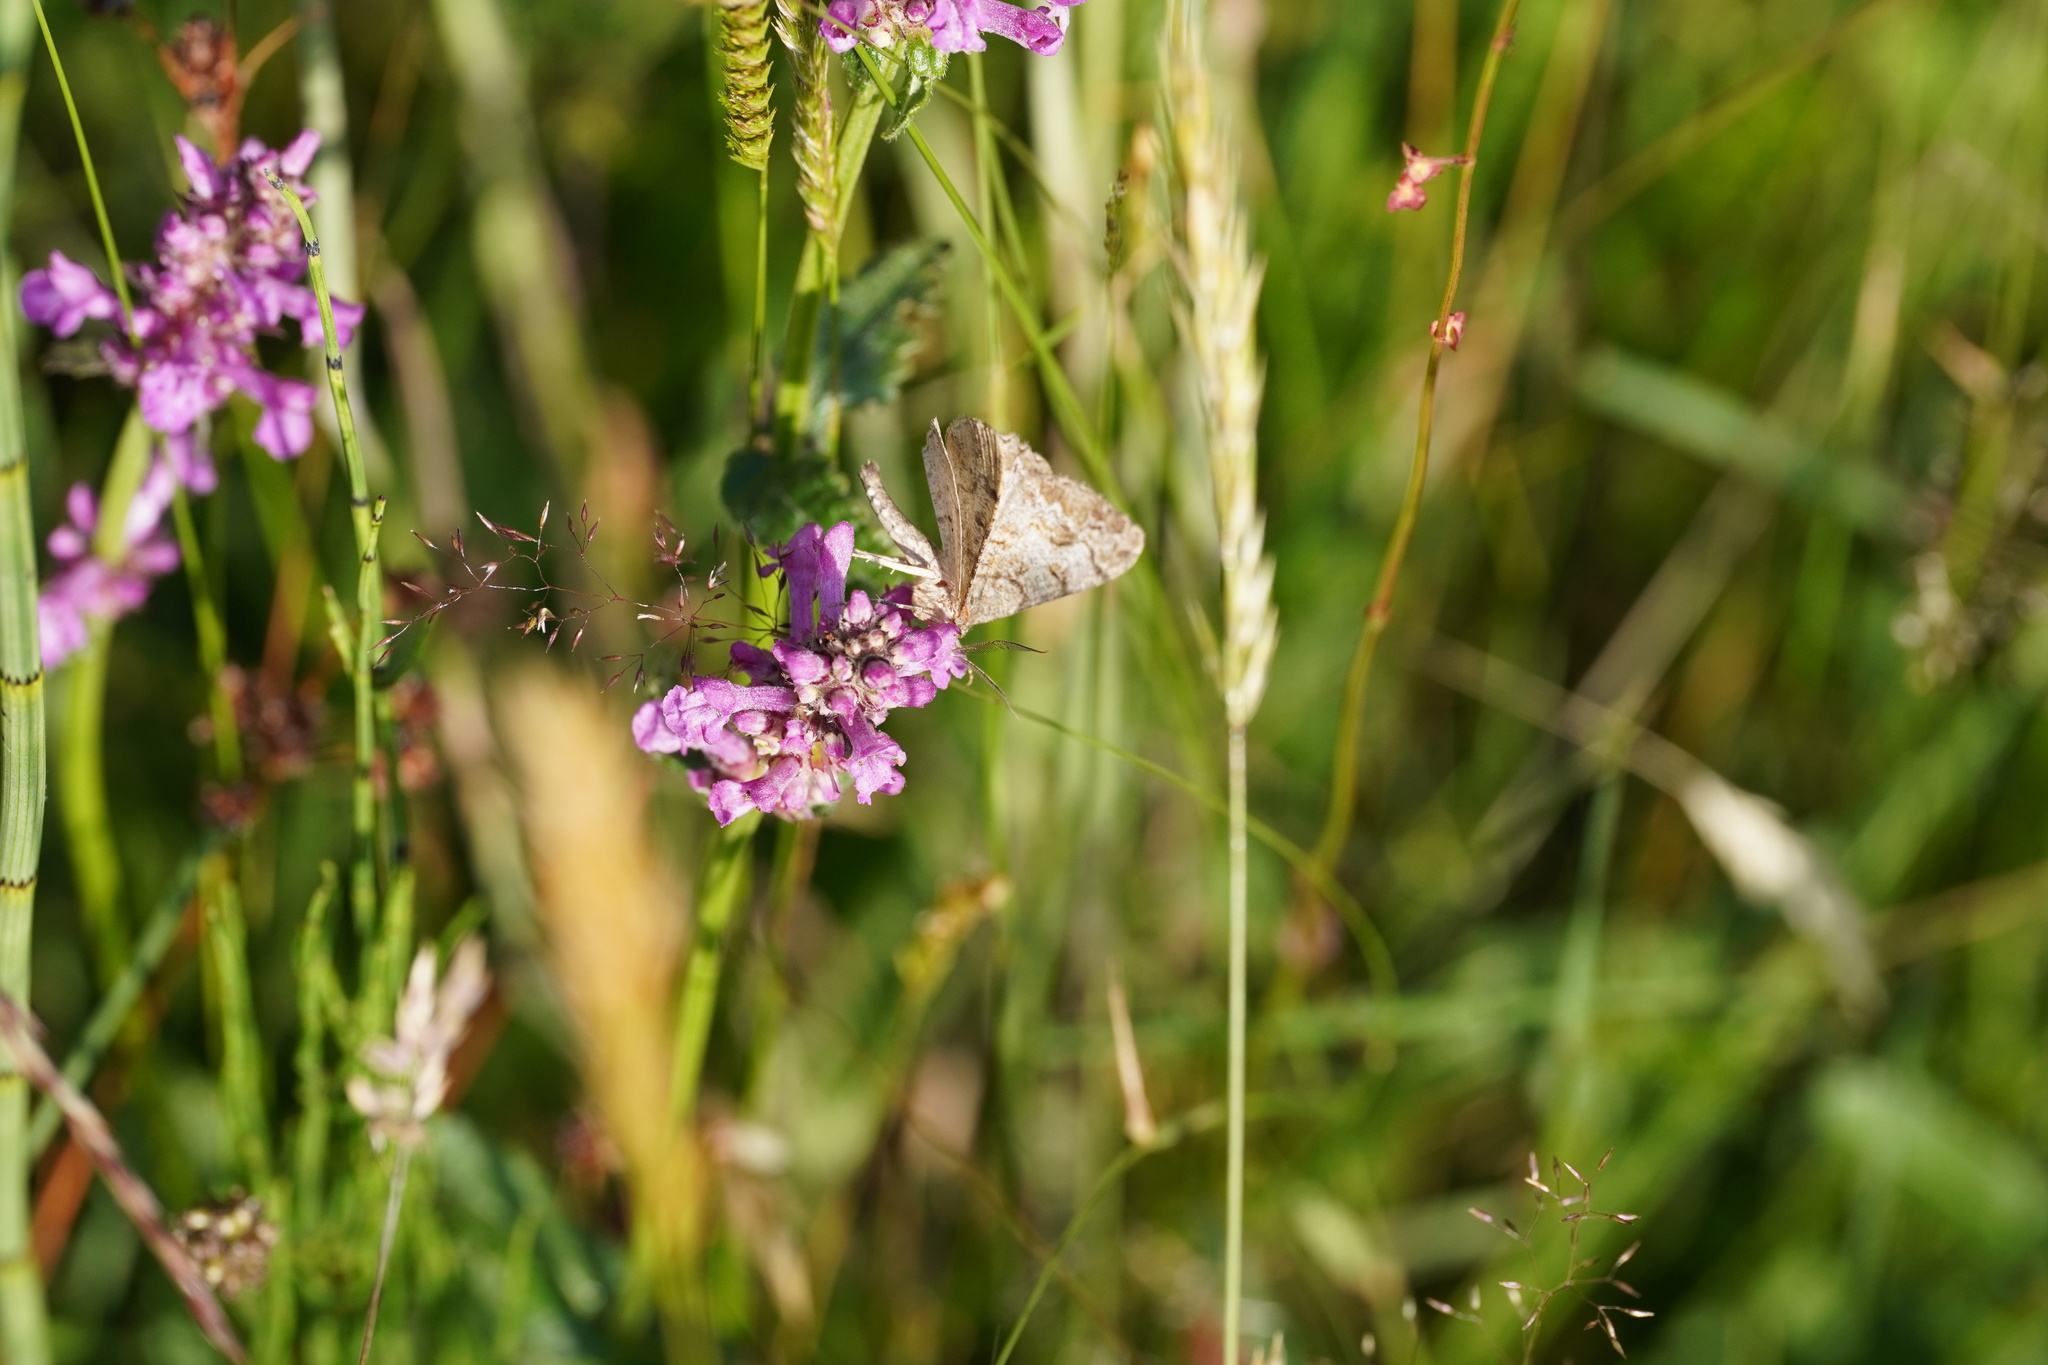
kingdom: Animalia
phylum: Arthropoda
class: Insecta
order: Lepidoptera
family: Geometridae
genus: Alcis
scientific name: Alcis repandata
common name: Mottled beauty
